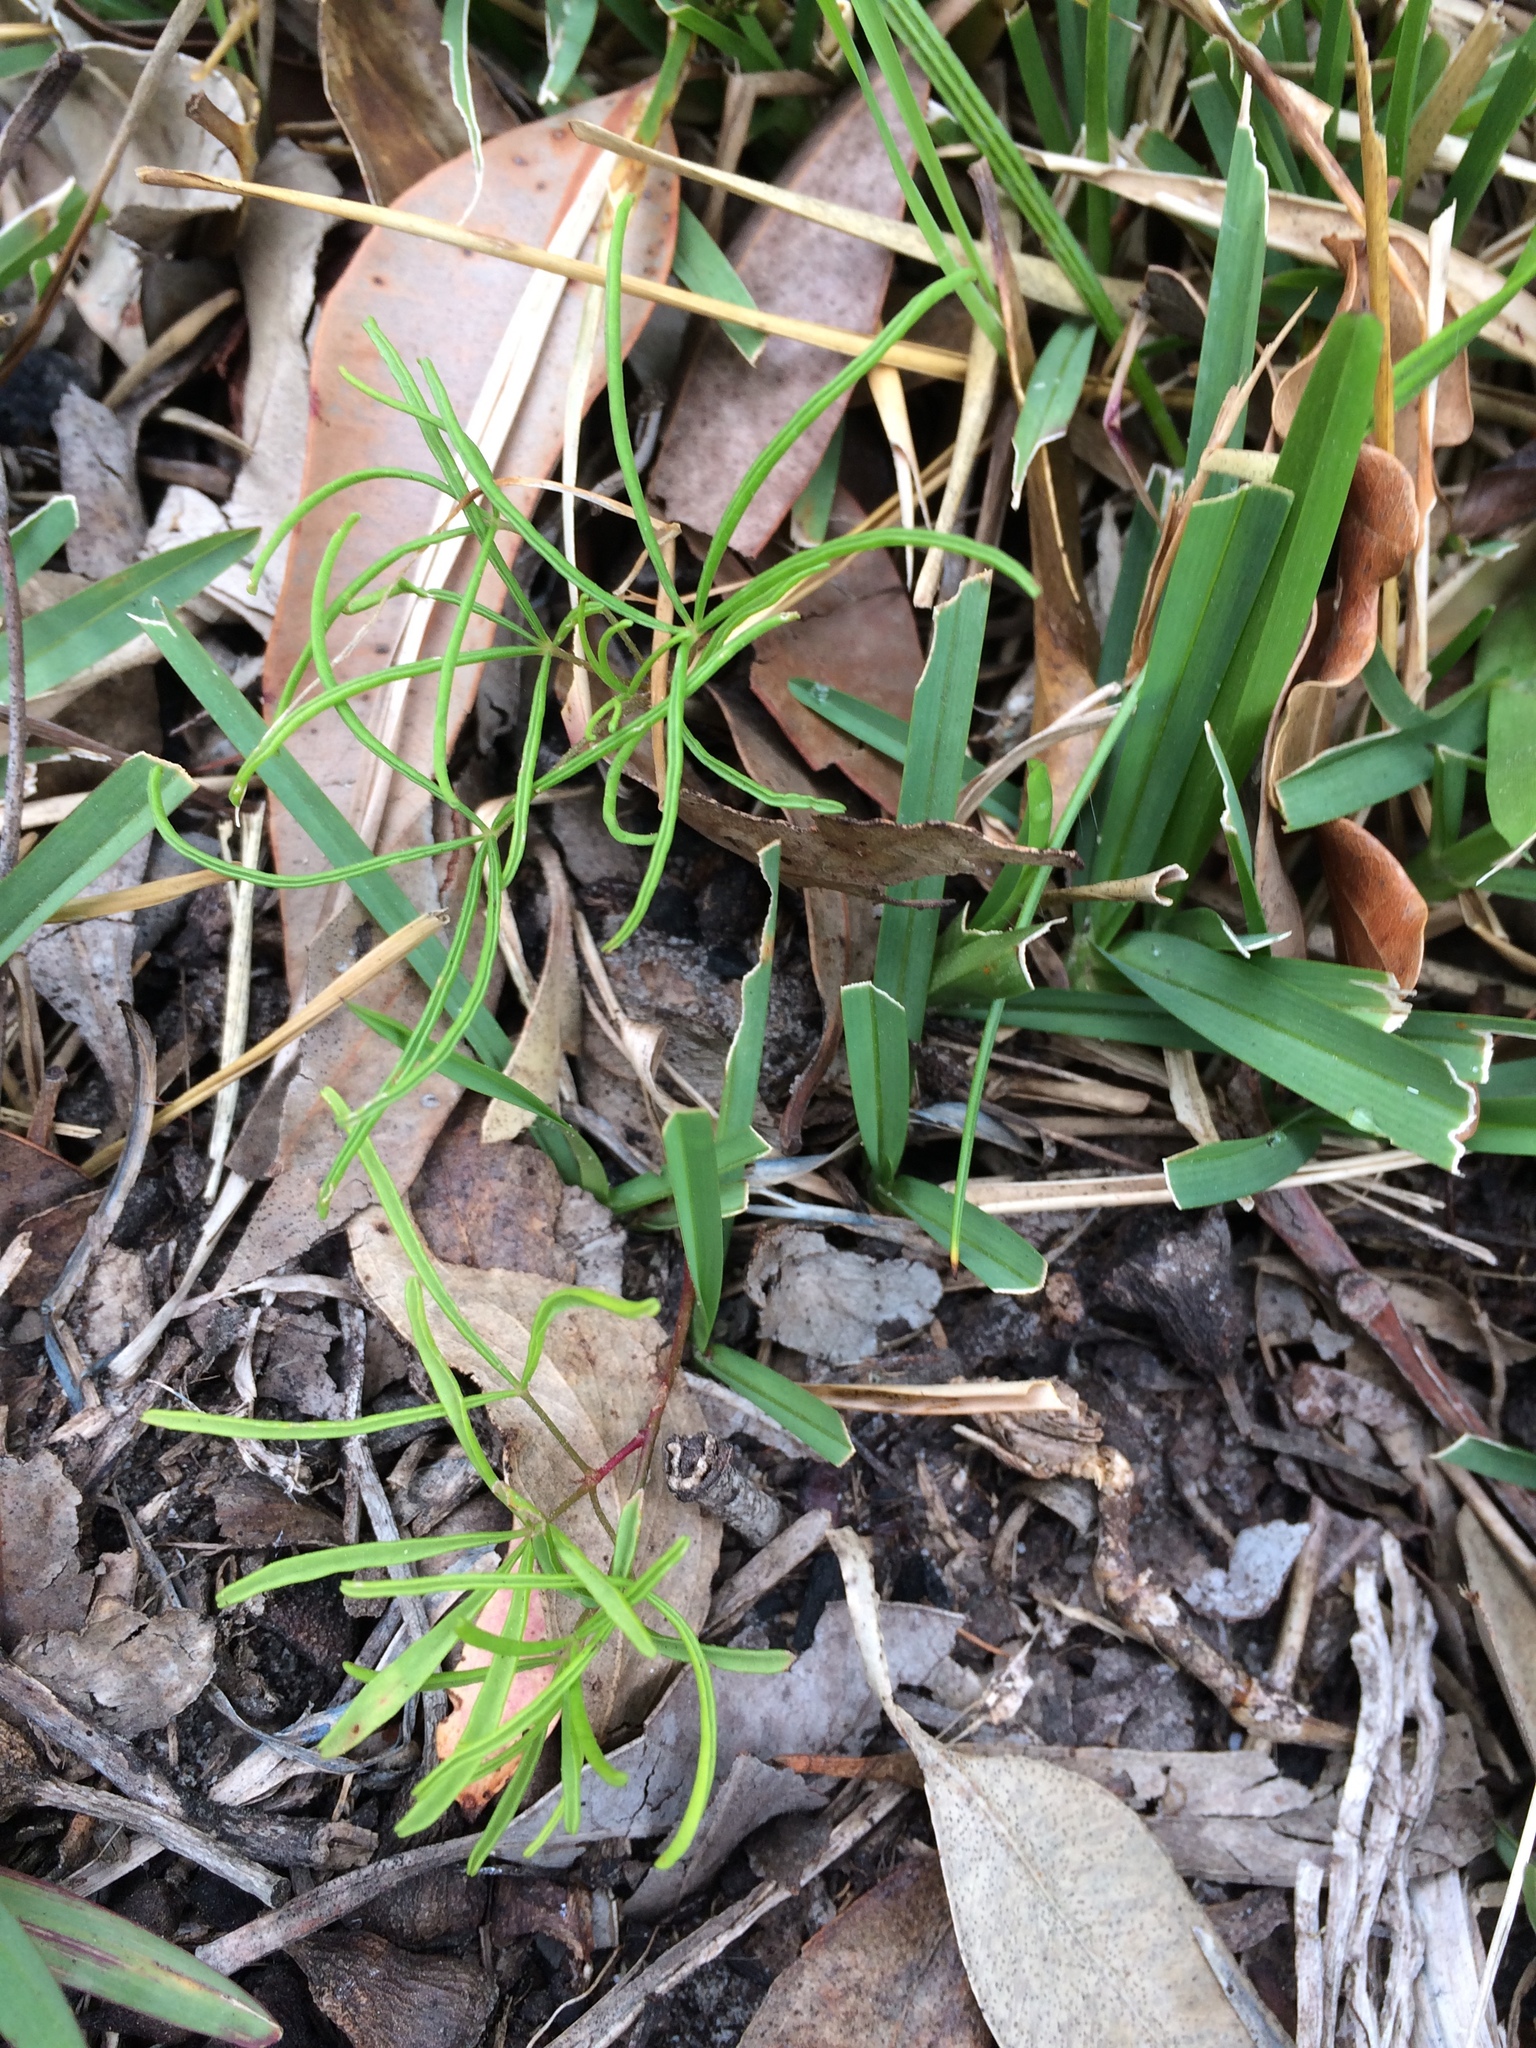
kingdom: Plantae
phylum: Tracheophyta
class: Magnoliopsida
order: Oxalidales
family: Oxalidaceae
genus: Oxalis
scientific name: Oxalis polyphylla
